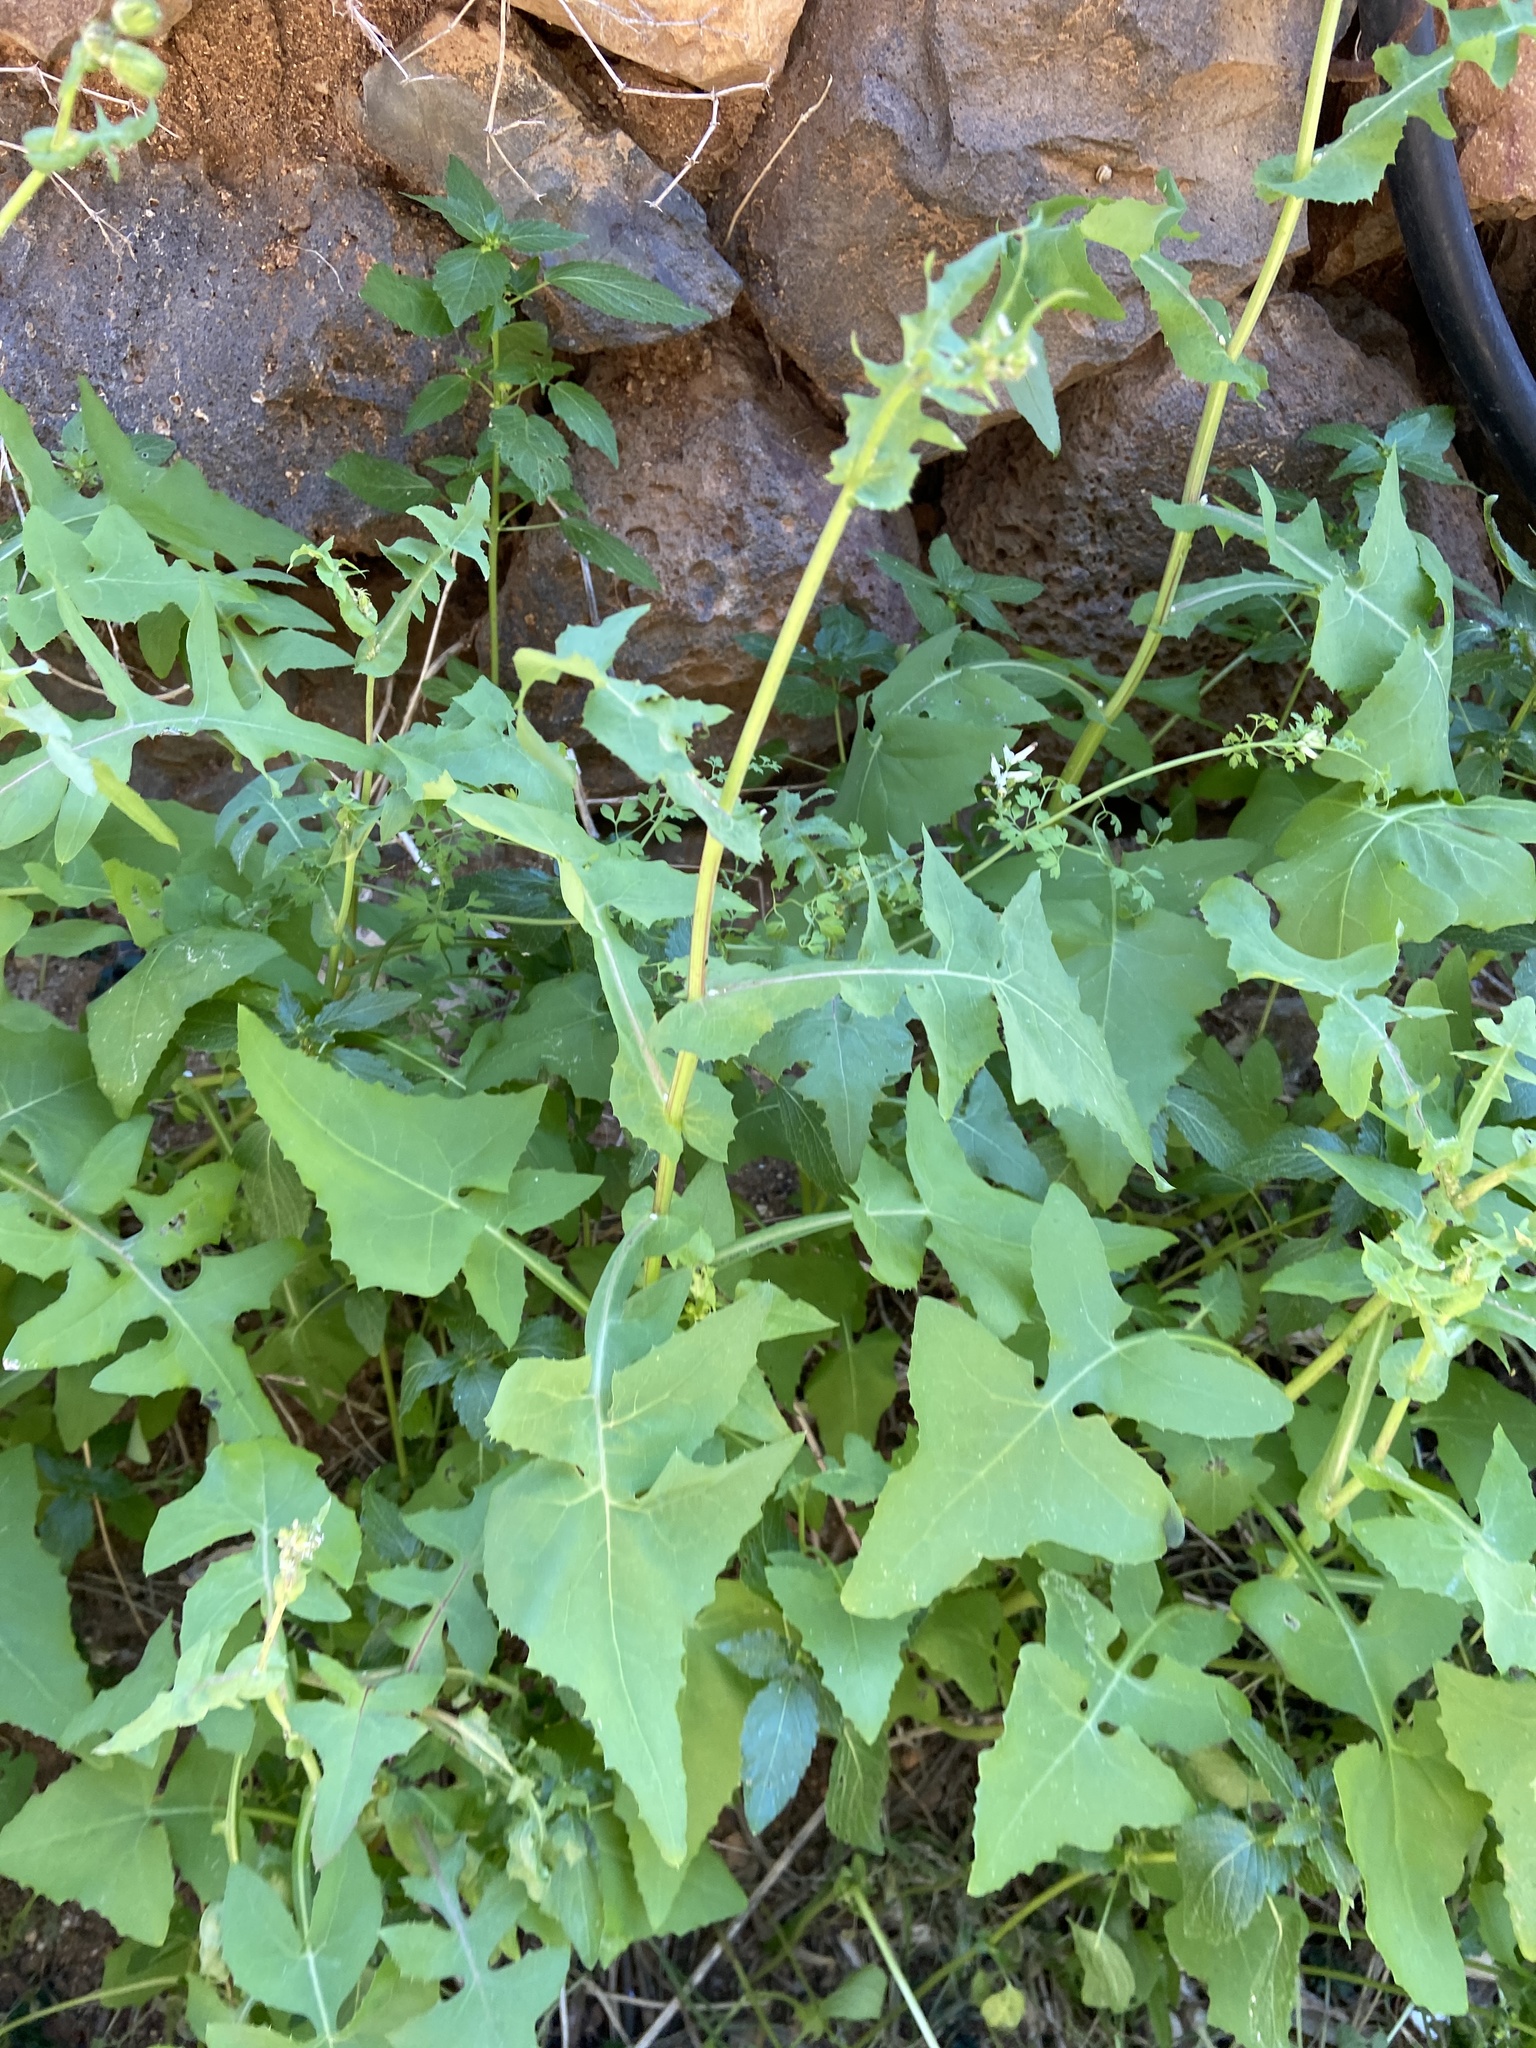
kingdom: Plantae
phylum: Tracheophyta
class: Magnoliopsida
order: Asterales
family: Asteraceae
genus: Sonchus
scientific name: Sonchus oleraceus
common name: Common sowthistle
